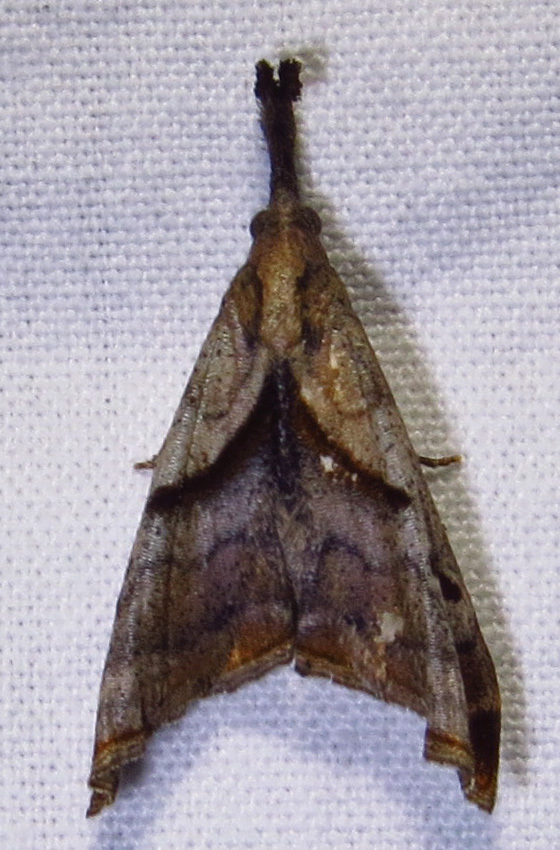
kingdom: Animalia
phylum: Arthropoda
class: Insecta
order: Lepidoptera
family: Erebidae
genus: Palthis
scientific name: Palthis angulalis
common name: Dark-spotted palthis moth
